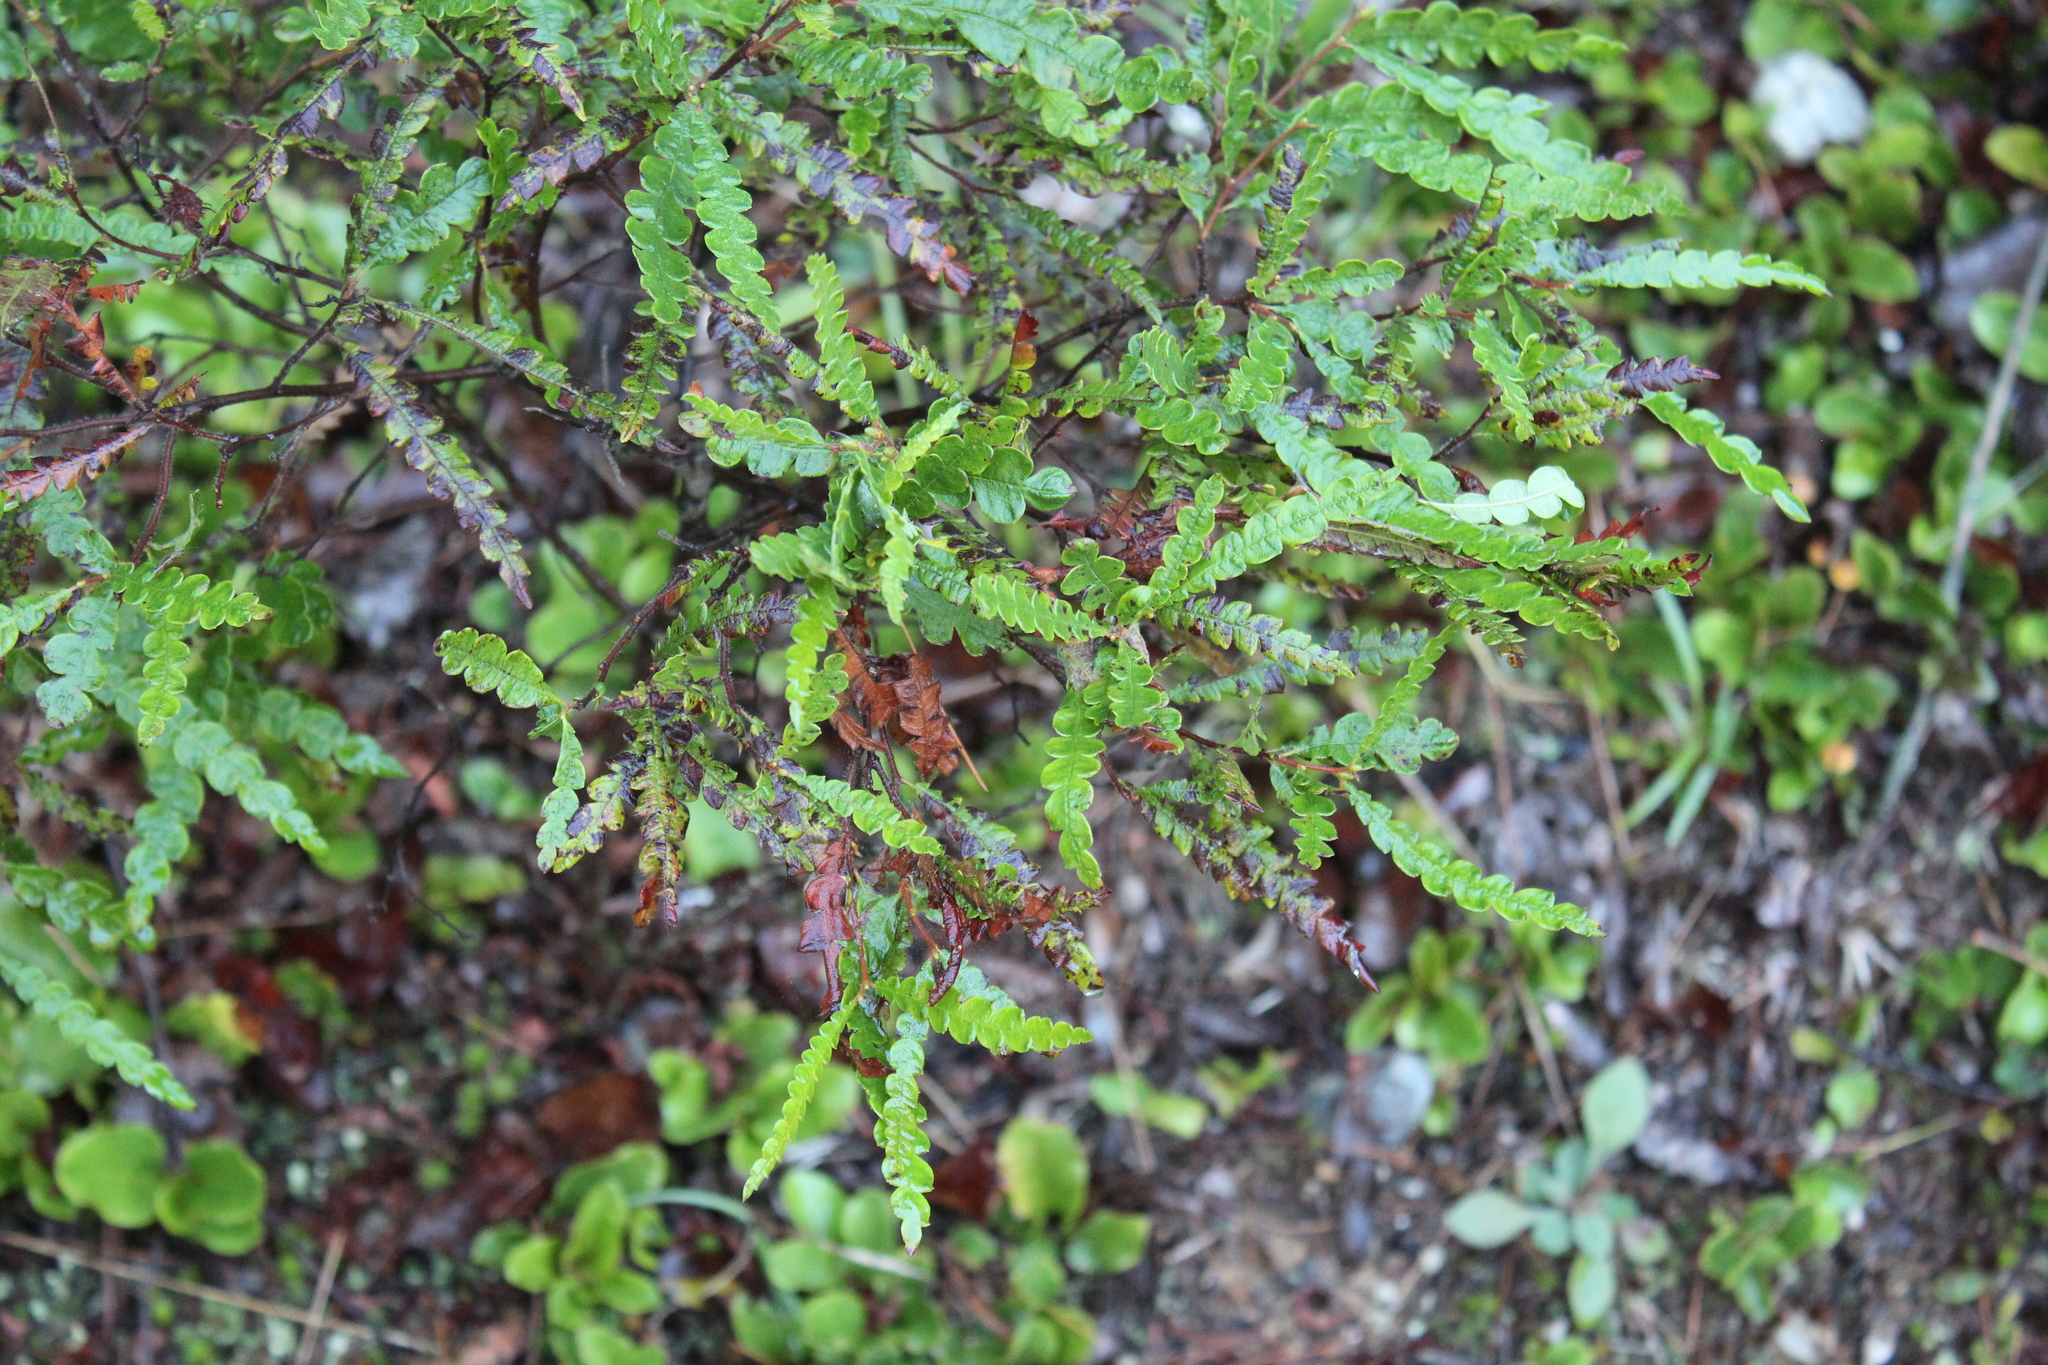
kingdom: Plantae
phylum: Tracheophyta
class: Magnoliopsida
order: Fagales
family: Myricaceae
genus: Comptonia
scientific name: Comptonia peregrina
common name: Sweet-fern
